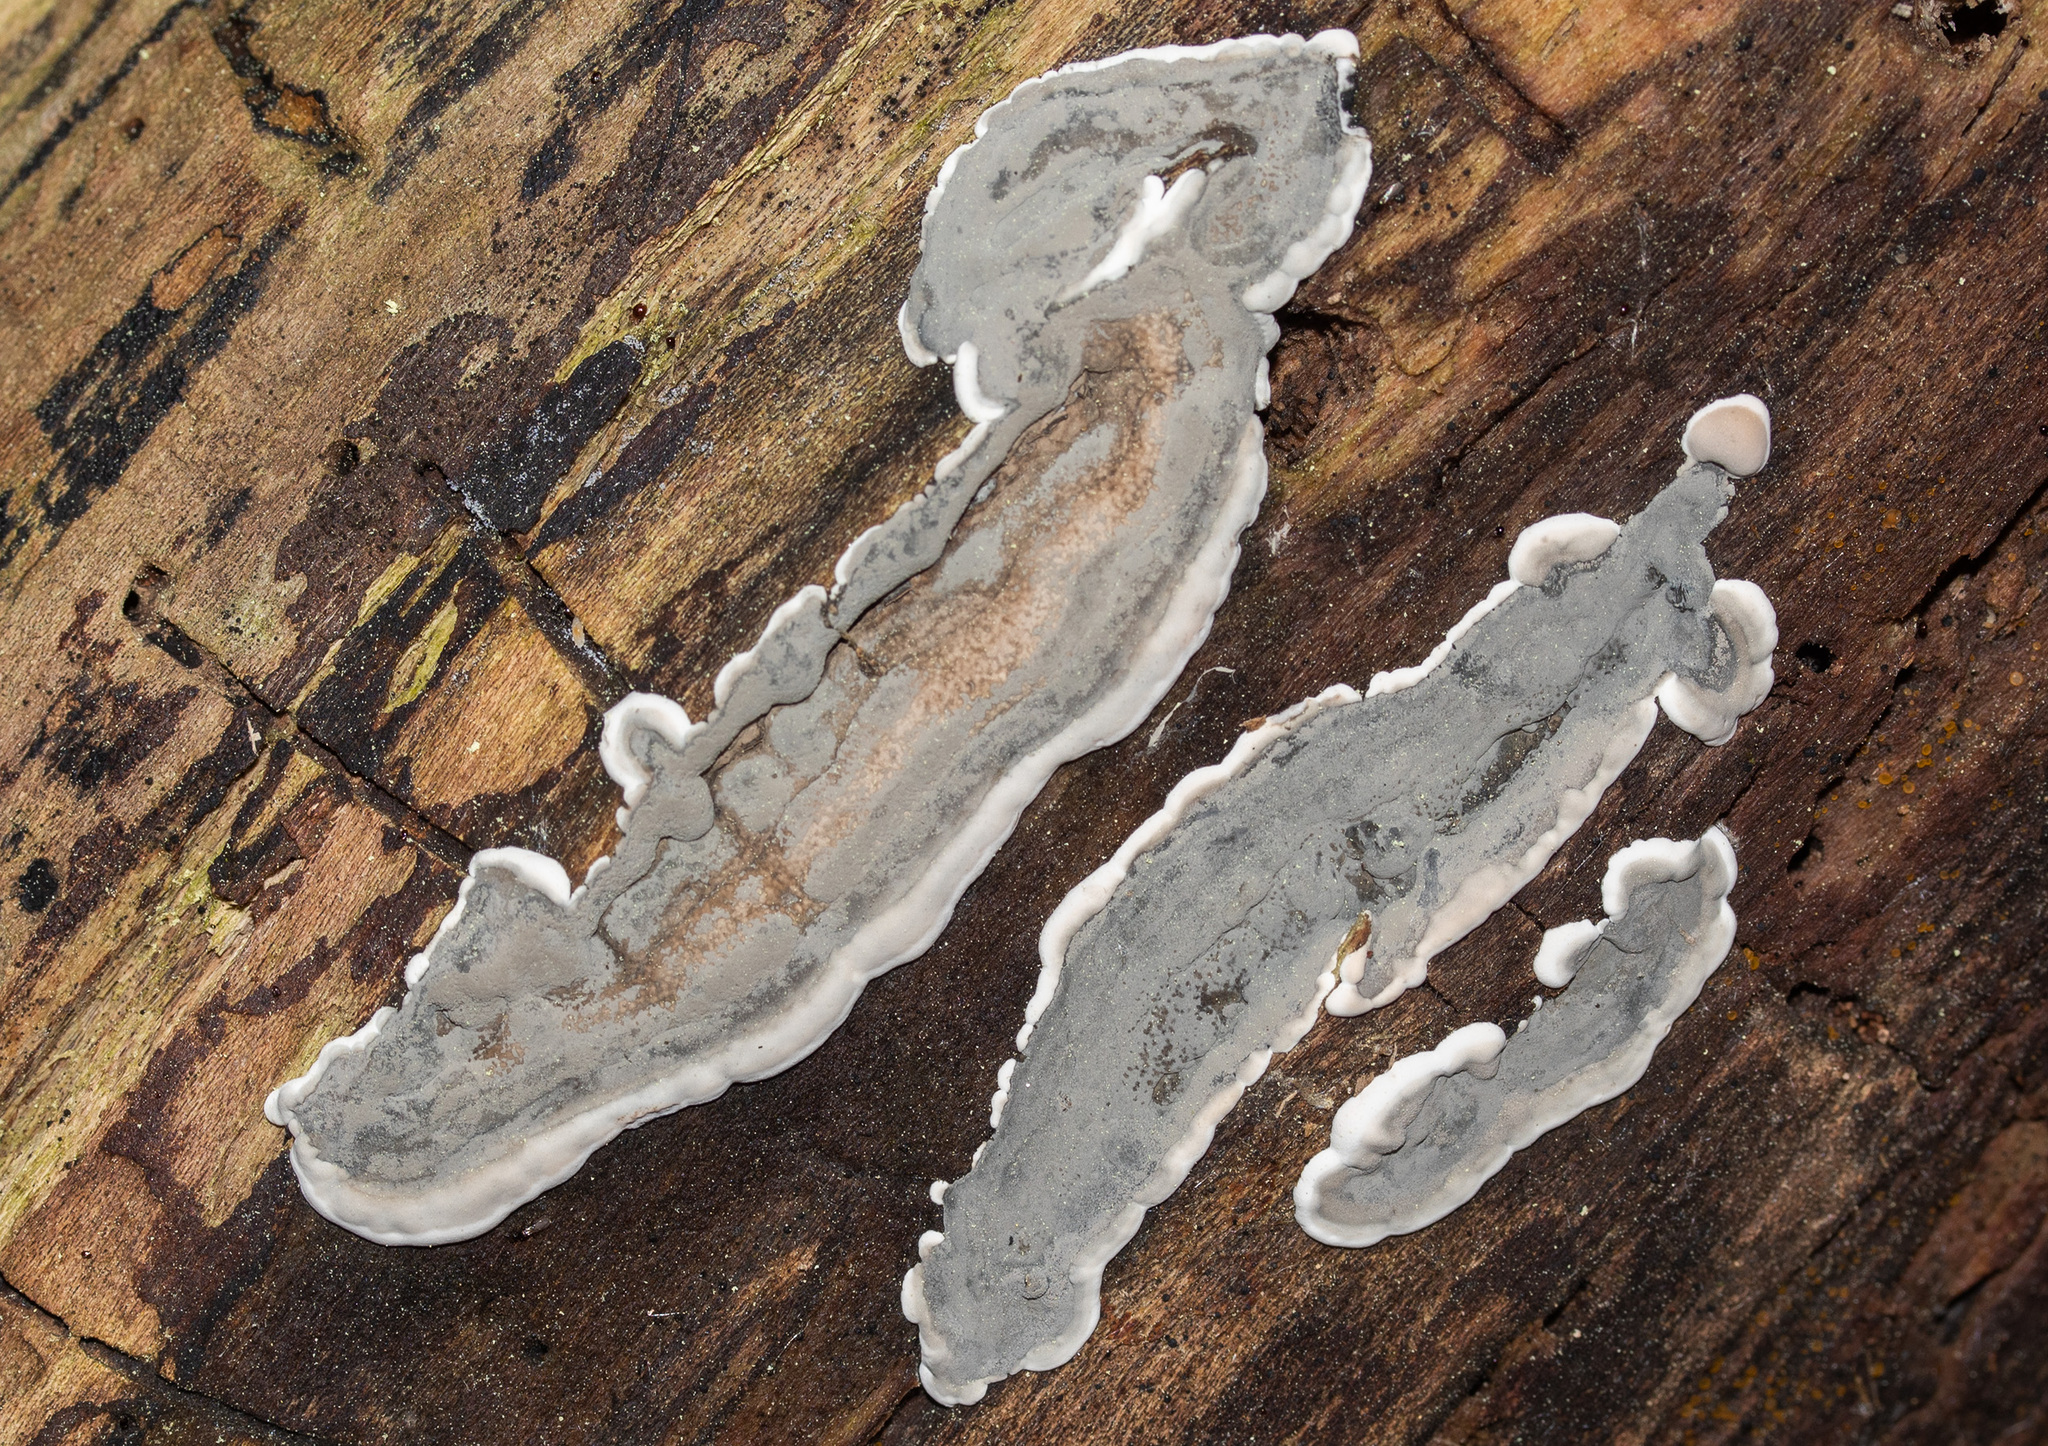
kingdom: Fungi
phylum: Ascomycota
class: Sordariomycetes
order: Xylariales
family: Xylariaceae
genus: Kretzschmaria
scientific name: Kretzschmaria deusta
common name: Brittle cinder
